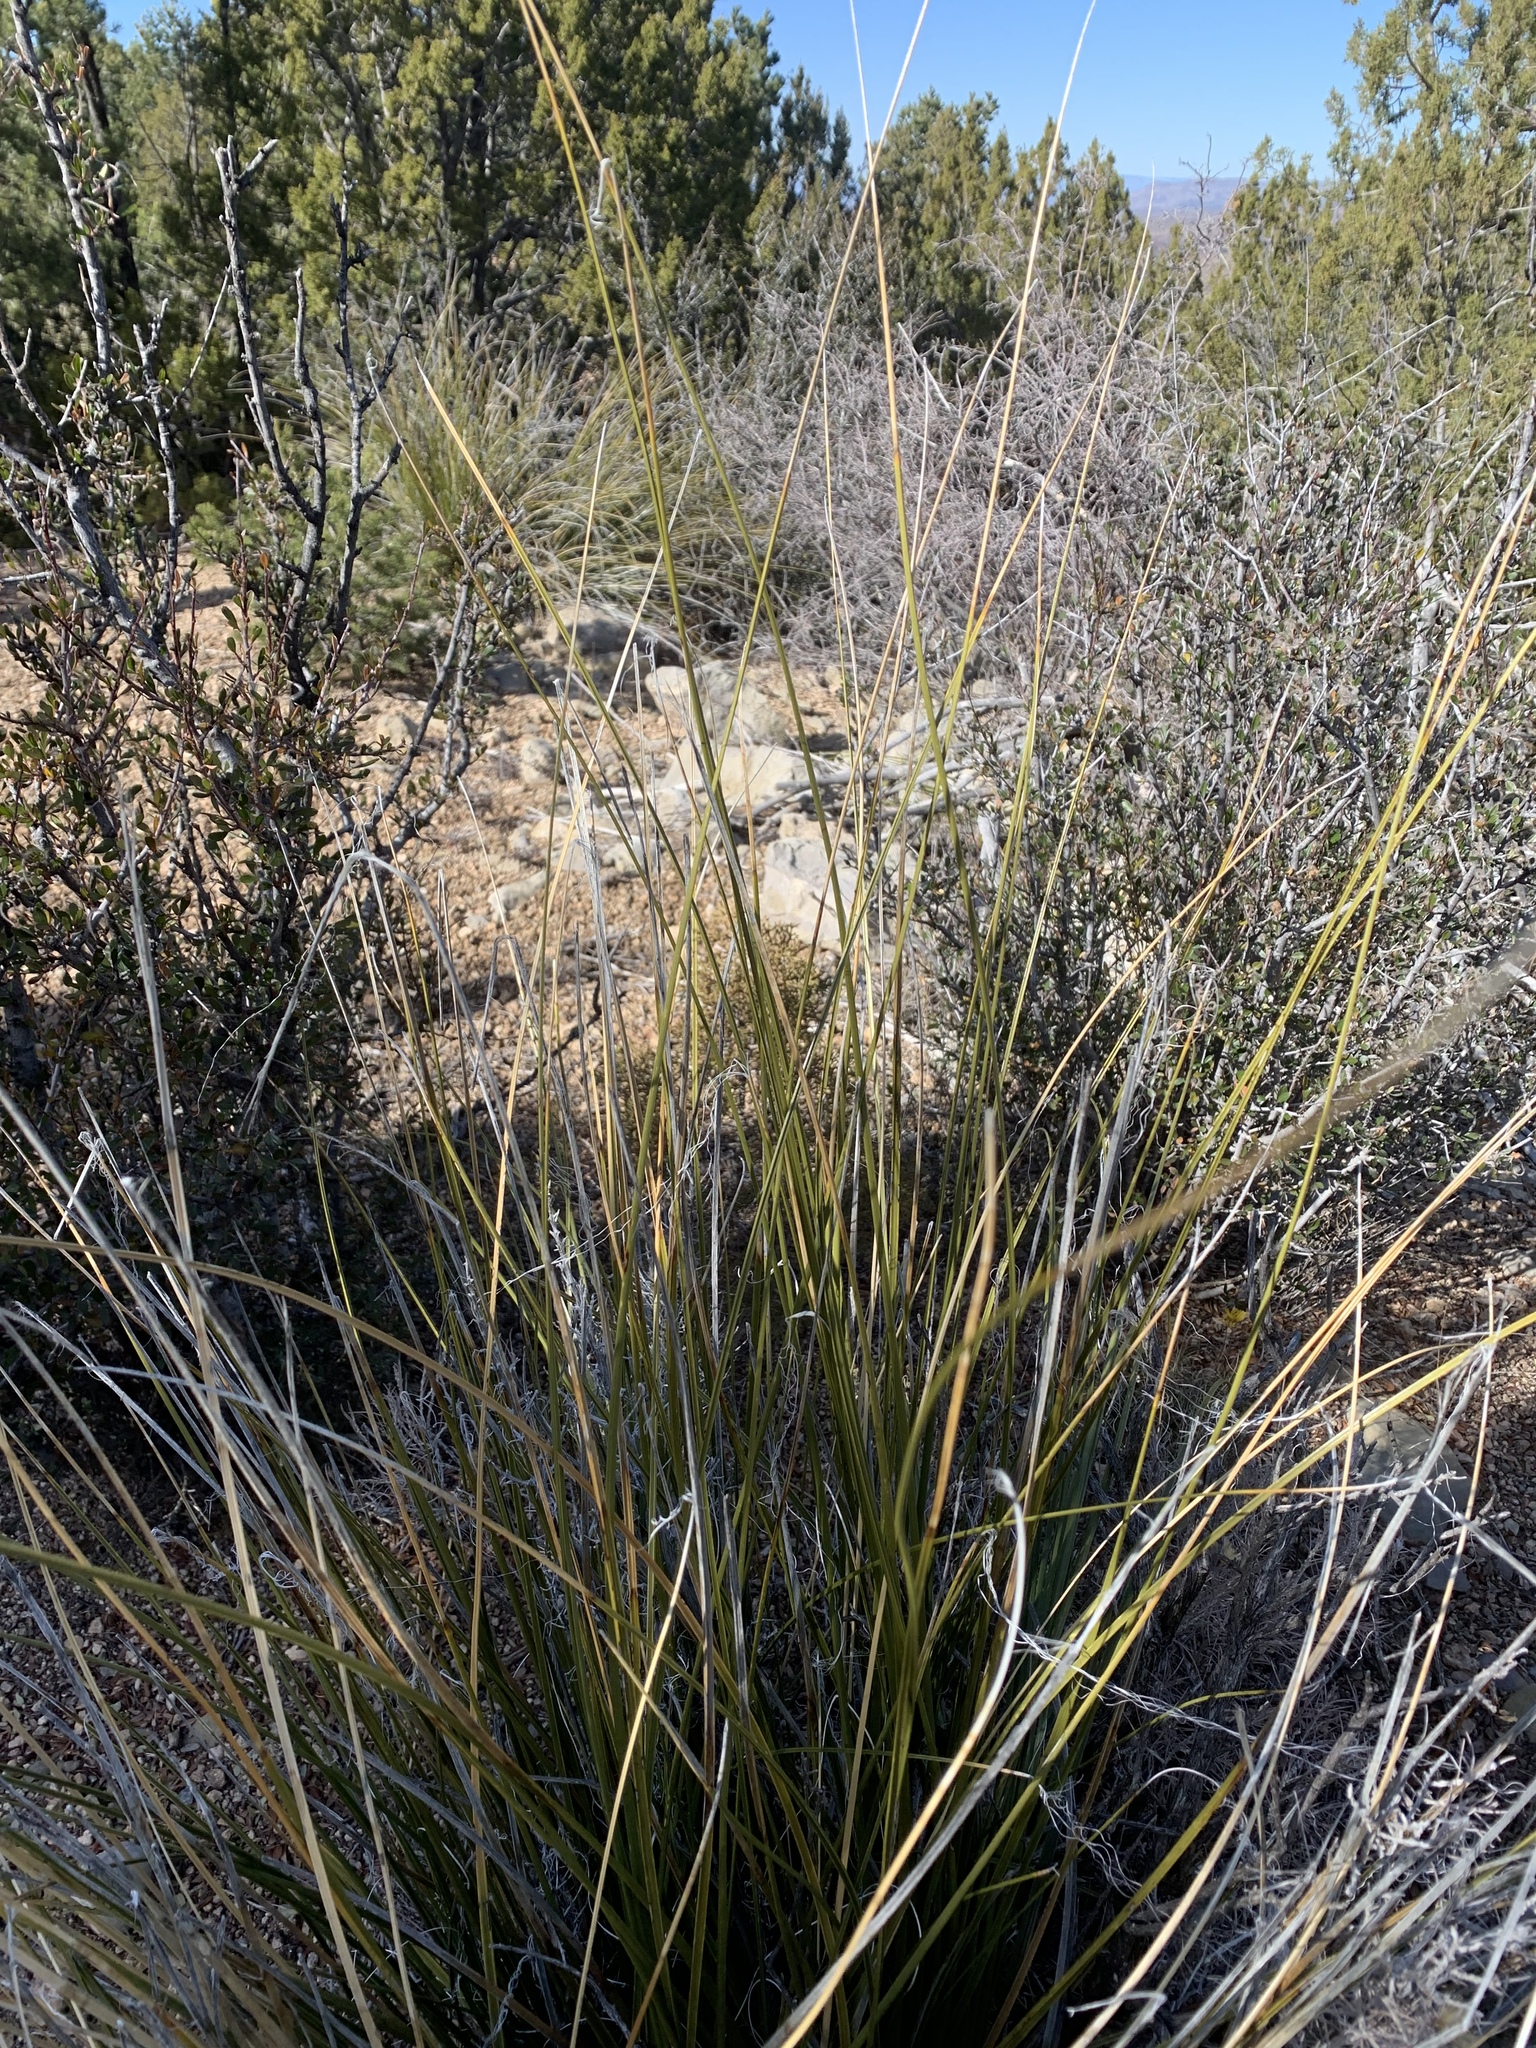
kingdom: Plantae
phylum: Tracheophyta
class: Liliopsida
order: Asparagales
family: Asparagaceae
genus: Nolina
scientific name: Nolina microcarpa
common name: Bear-grass
